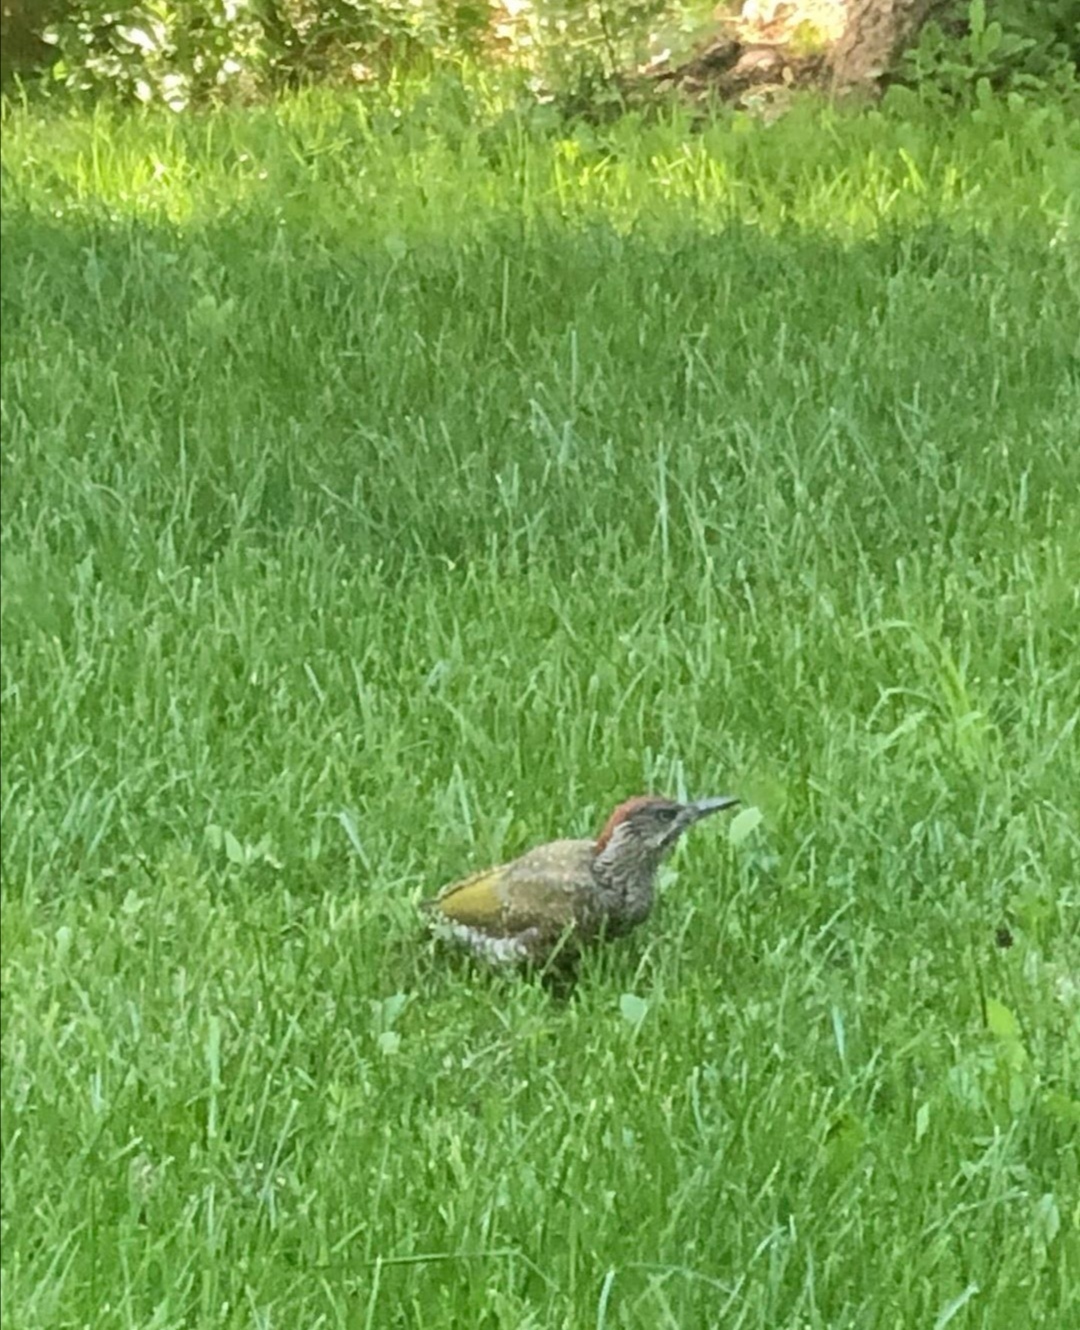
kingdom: Animalia
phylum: Chordata
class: Aves
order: Piciformes
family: Picidae
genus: Picus
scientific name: Picus viridis
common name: European green woodpecker
